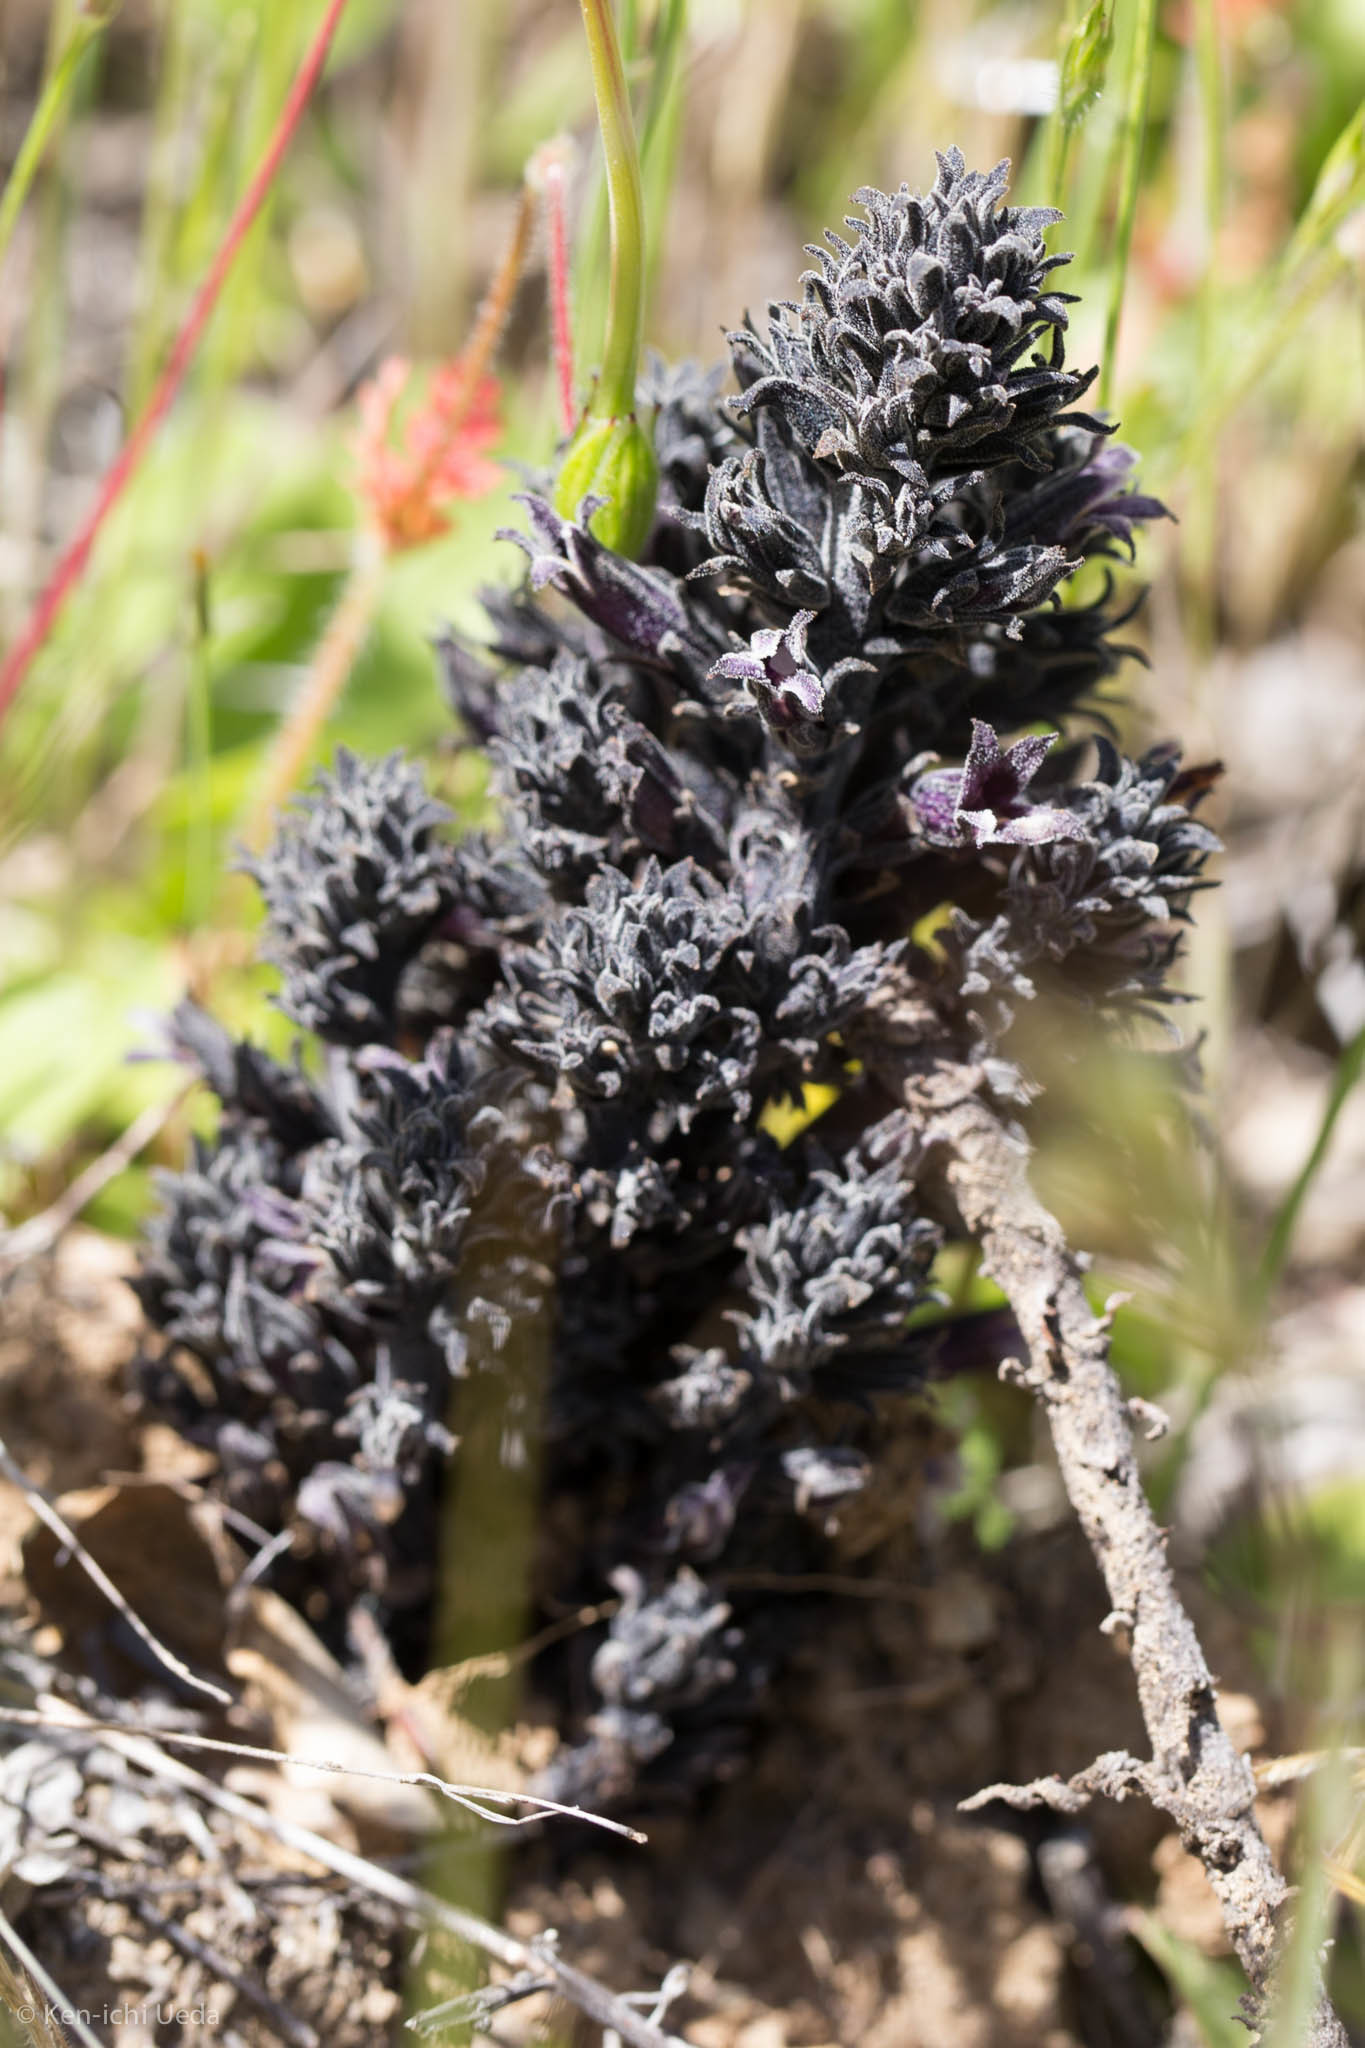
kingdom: Plantae
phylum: Tracheophyta
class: Magnoliopsida
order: Lamiales
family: Orobanchaceae
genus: Aphyllon
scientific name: Aphyllon tuberosum
